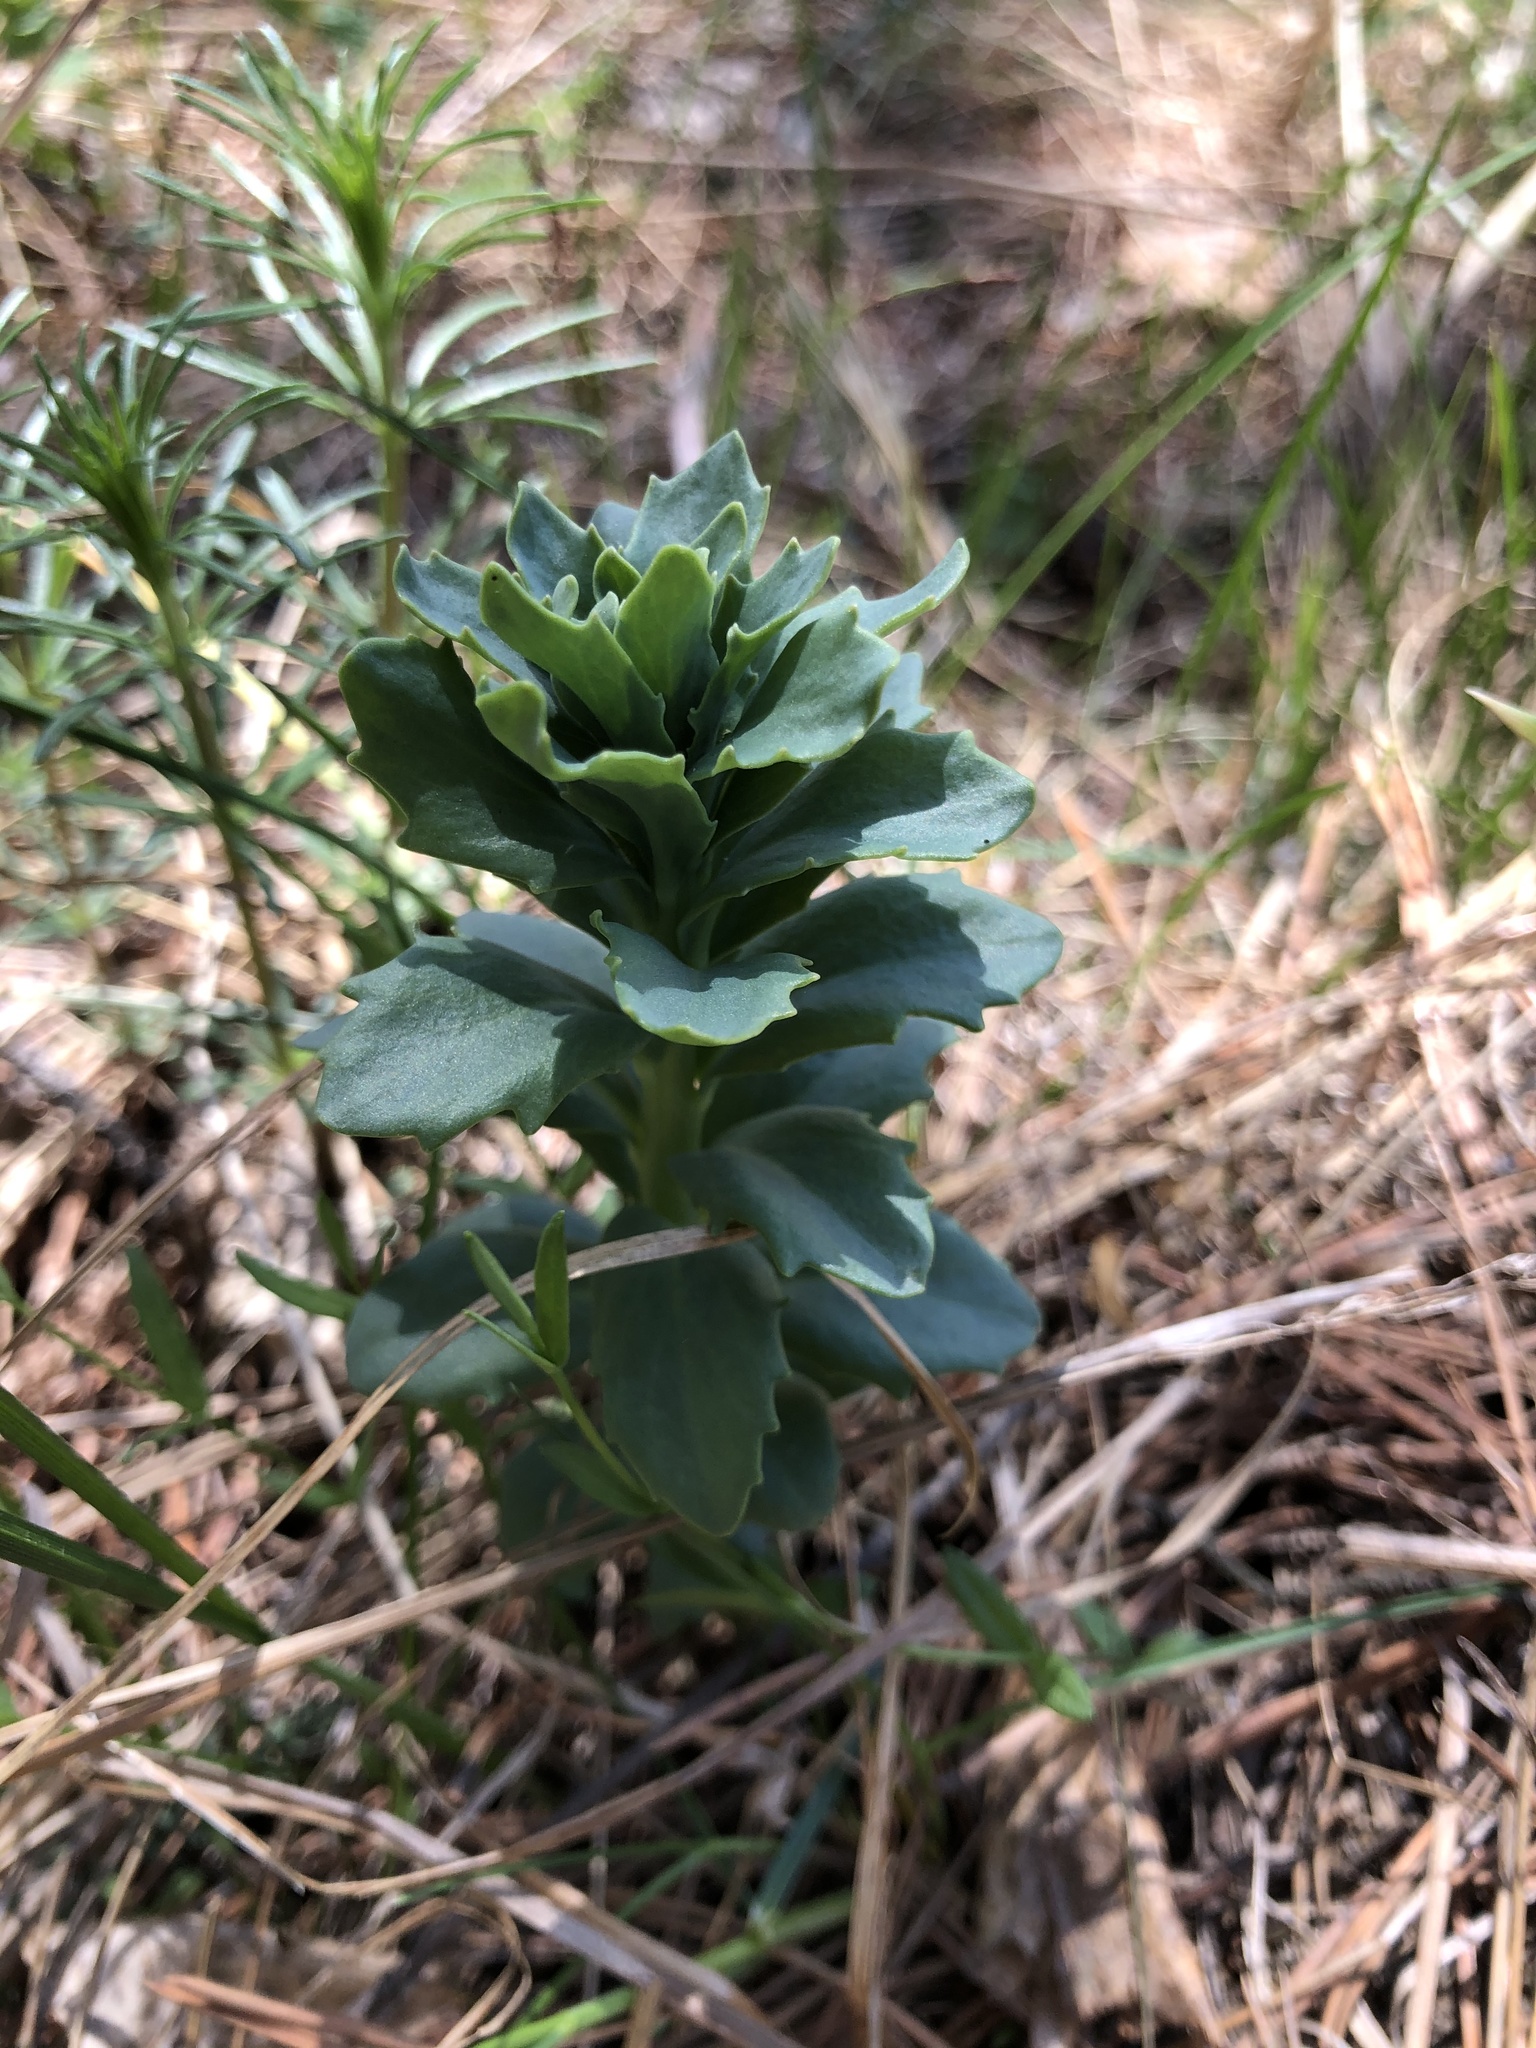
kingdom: Plantae
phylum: Tracheophyta
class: Magnoliopsida
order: Saxifragales
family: Crassulaceae
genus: Hylotelephium
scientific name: Hylotelephium telephium
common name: Live-forever
